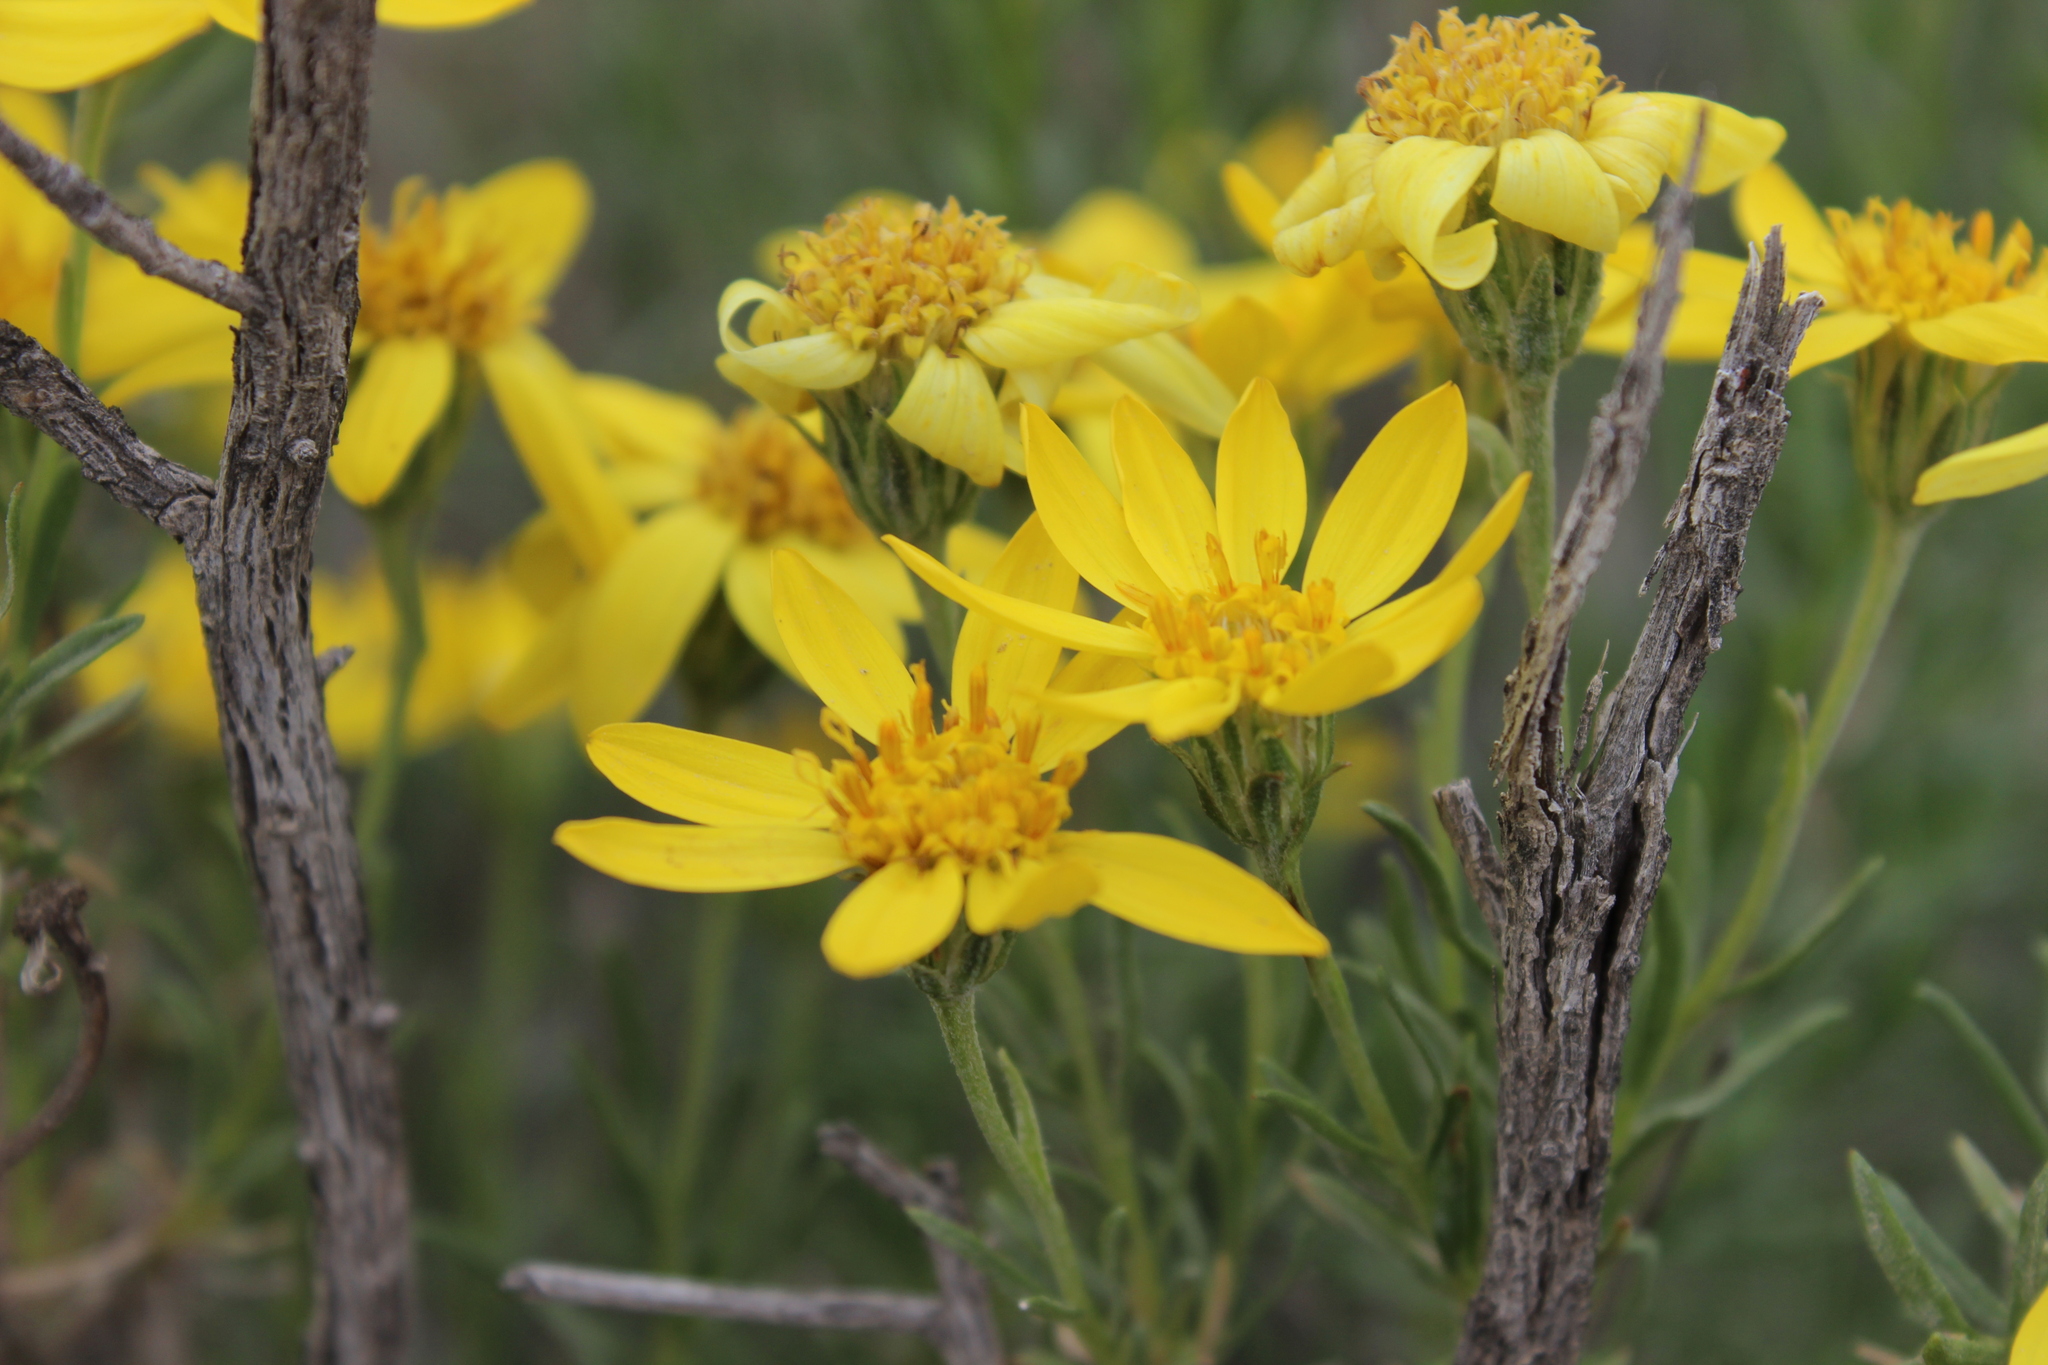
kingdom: Plantae
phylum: Tracheophyta
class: Magnoliopsida
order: Asterales
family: Asteraceae
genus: Ericameria
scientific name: Ericameria linearifolia
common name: Interior goldenbush
